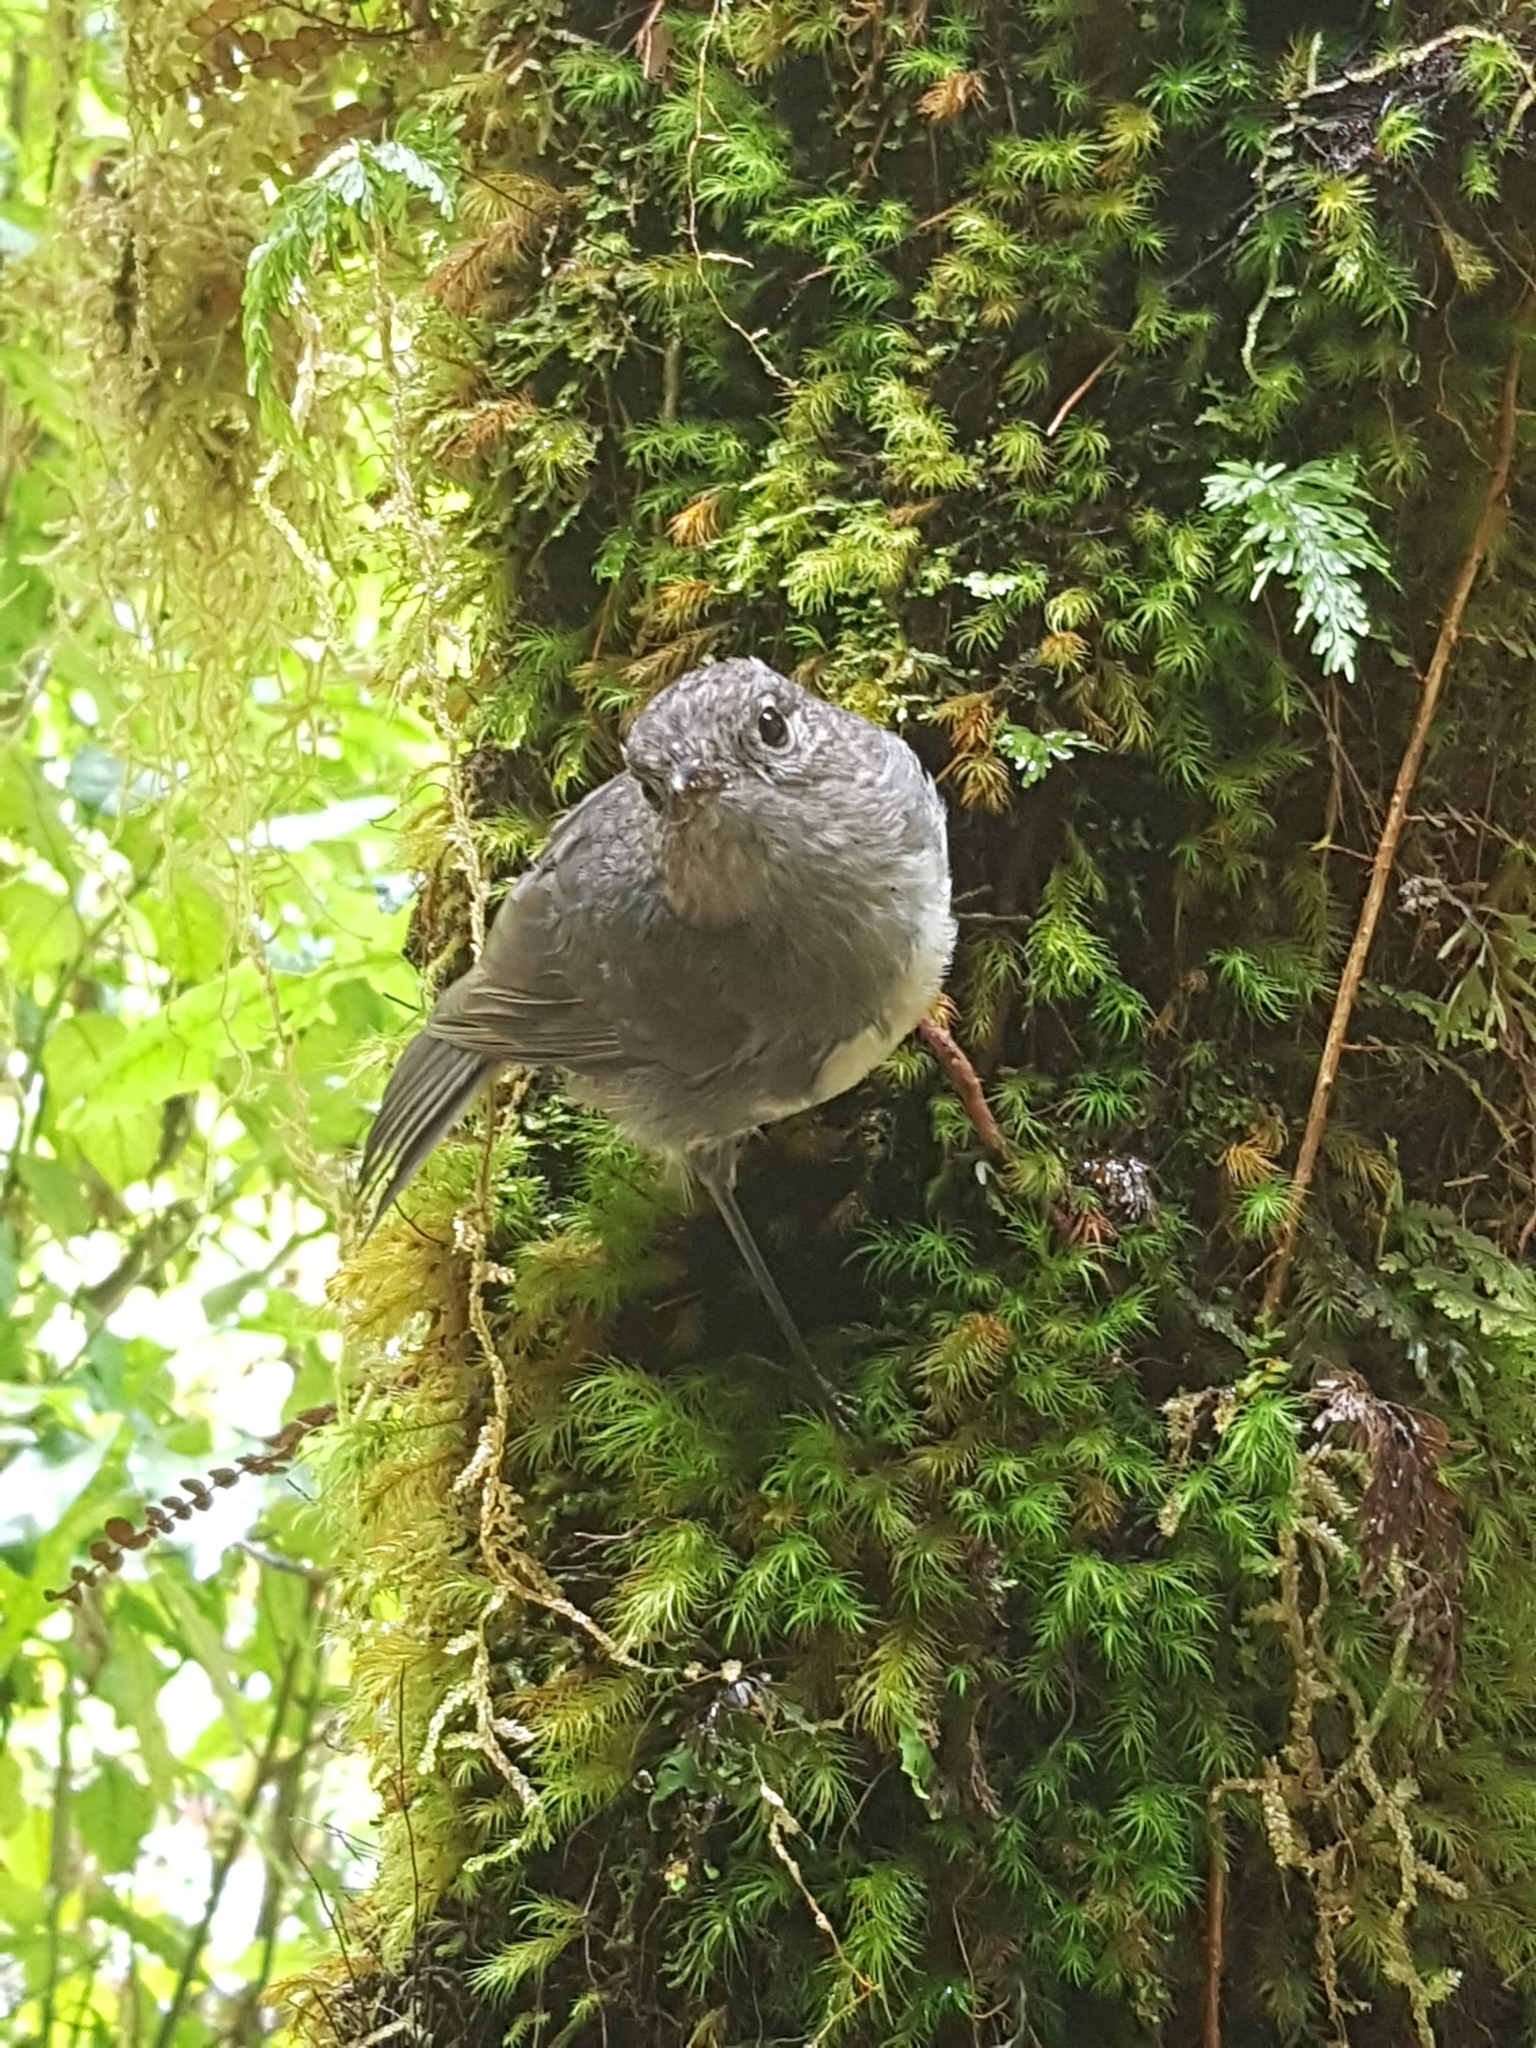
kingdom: Animalia
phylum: Chordata
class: Aves
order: Passeriformes
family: Petroicidae
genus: Petroica
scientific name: Petroica australis
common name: New zealand robin
